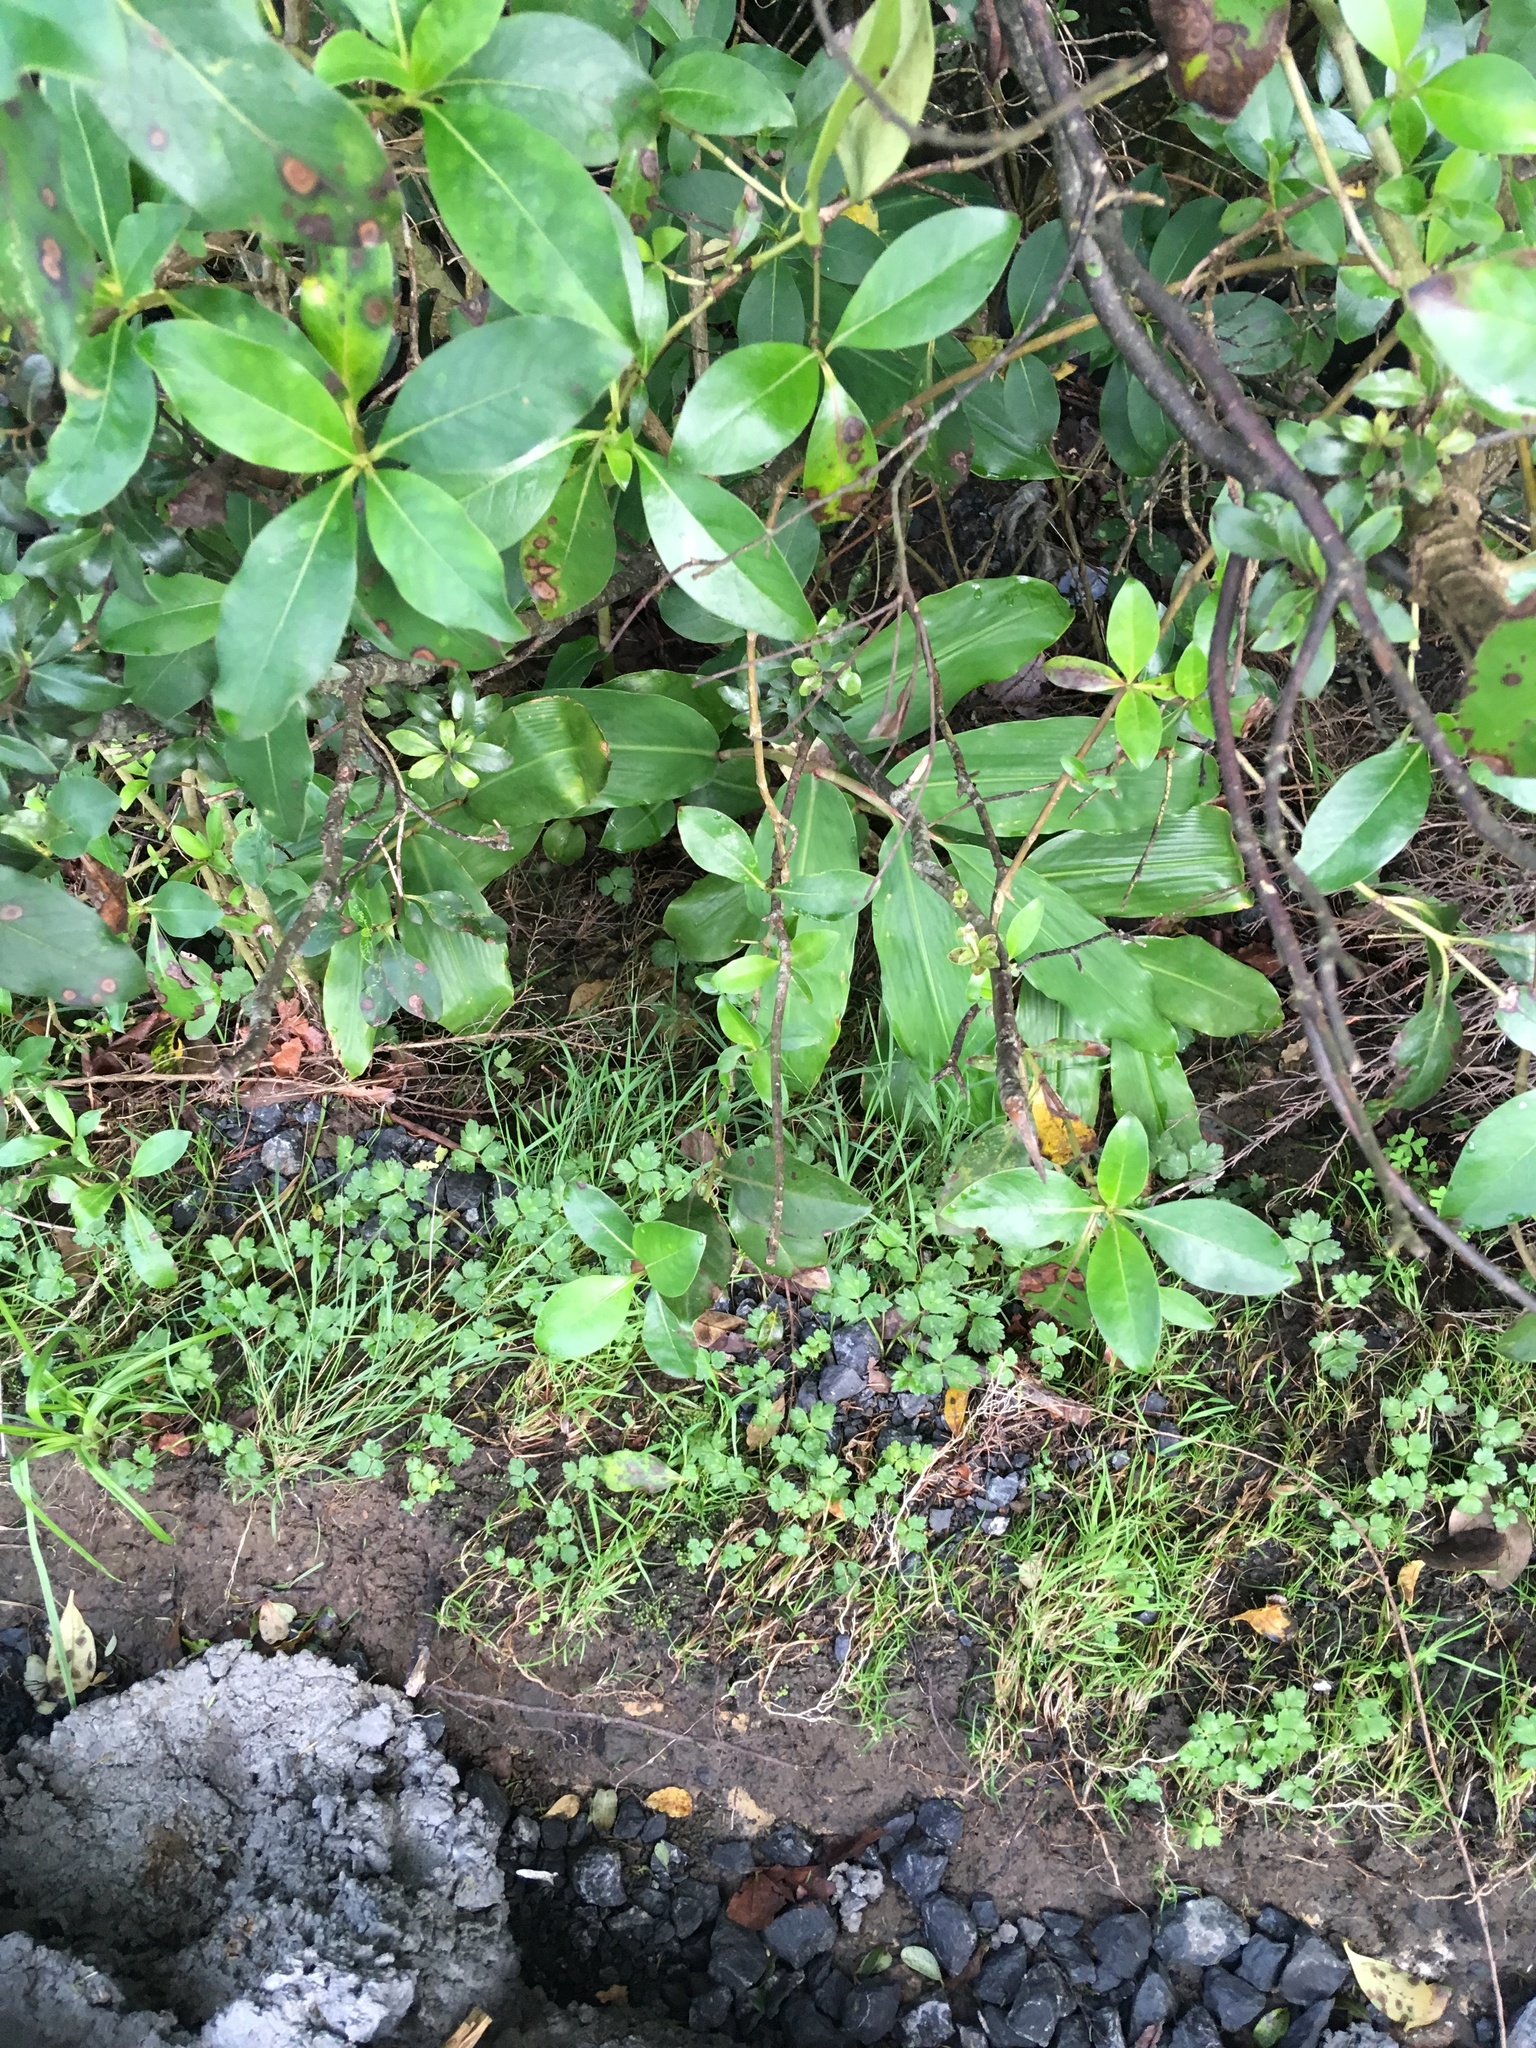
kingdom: Plantae
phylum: Tracheophyta
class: Liliopsida
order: Zingiberales
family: Zingiberaceae
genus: Hedychium
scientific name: Hedychium gardnerianum
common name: Himalayan ginger
